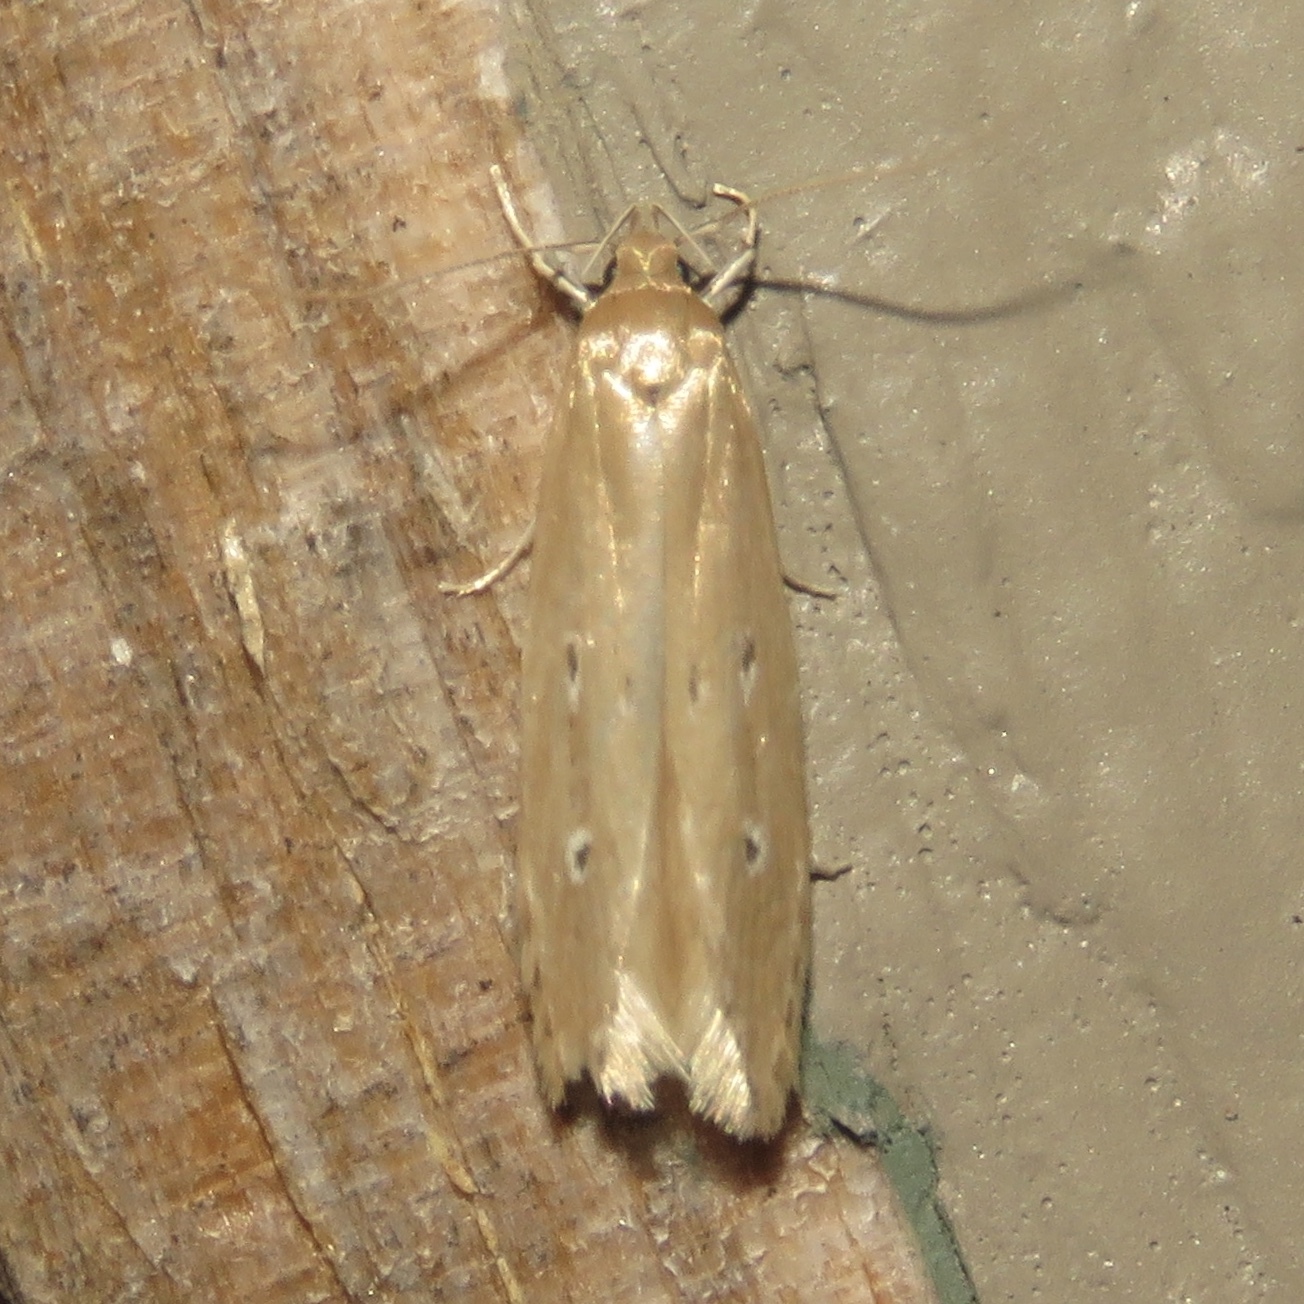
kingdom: Animalia
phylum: Arthropoda
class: Insecta
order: Lepidoptera
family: Cosmopterigidae
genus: Limnaecia
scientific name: Limnaecia phragmitella
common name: Bulrush cosmet
